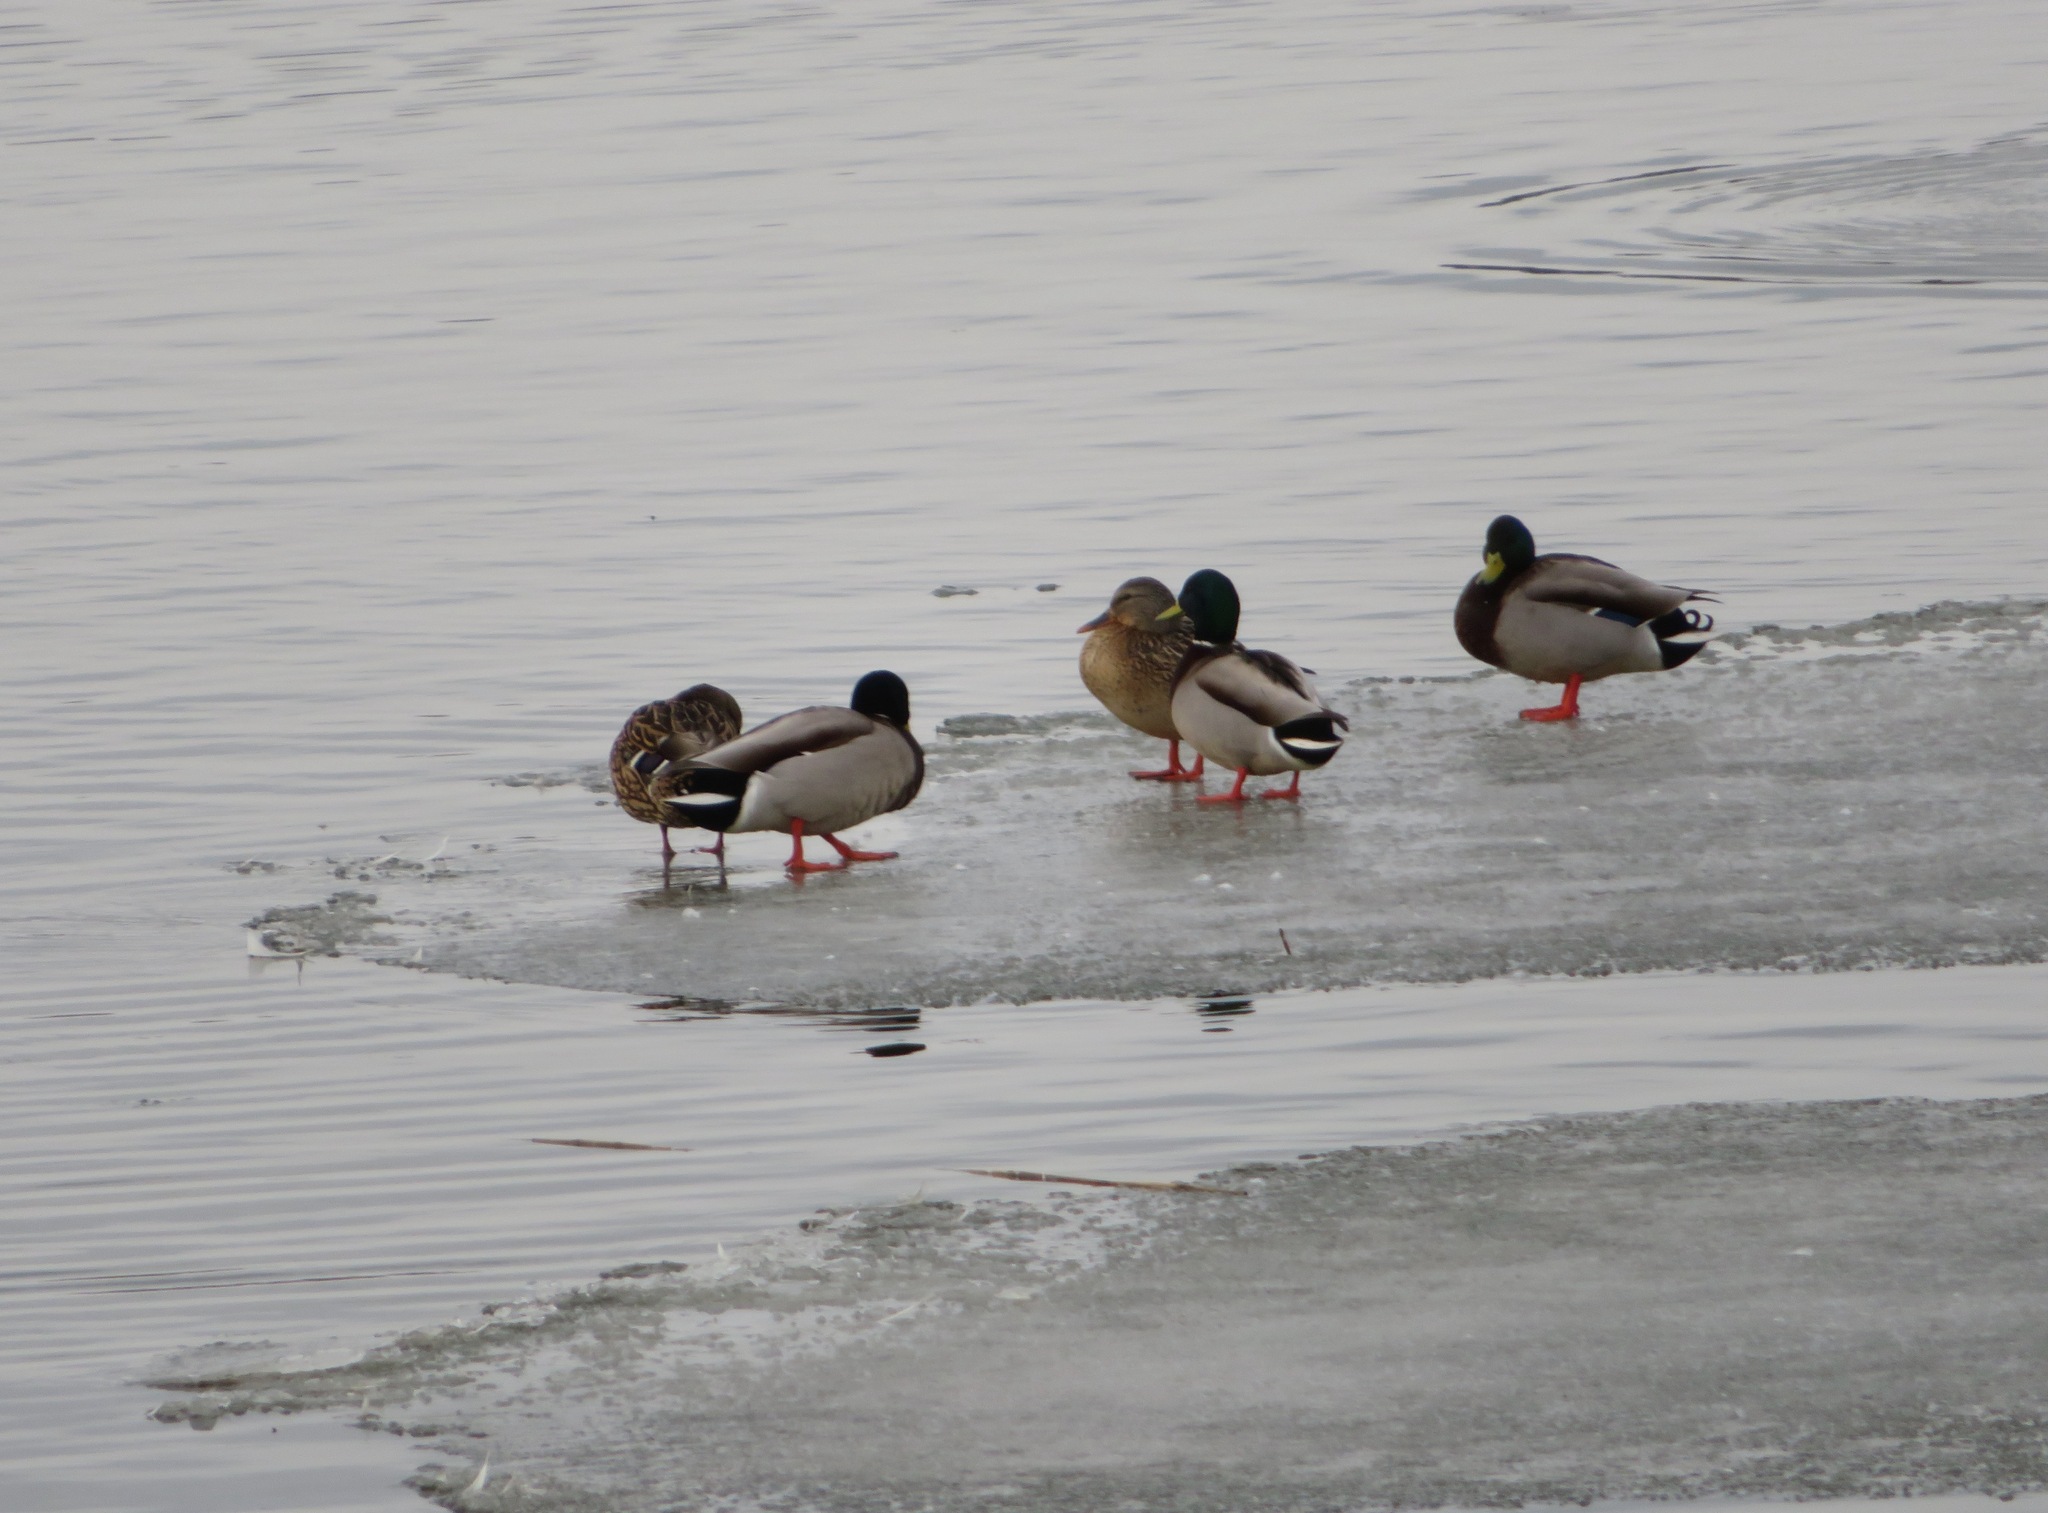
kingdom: Animalia
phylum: Chordata
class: Aves
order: Anseriformes
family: Anatidae
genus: Anas
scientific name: Anas platyrhynchos
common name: Mallard
